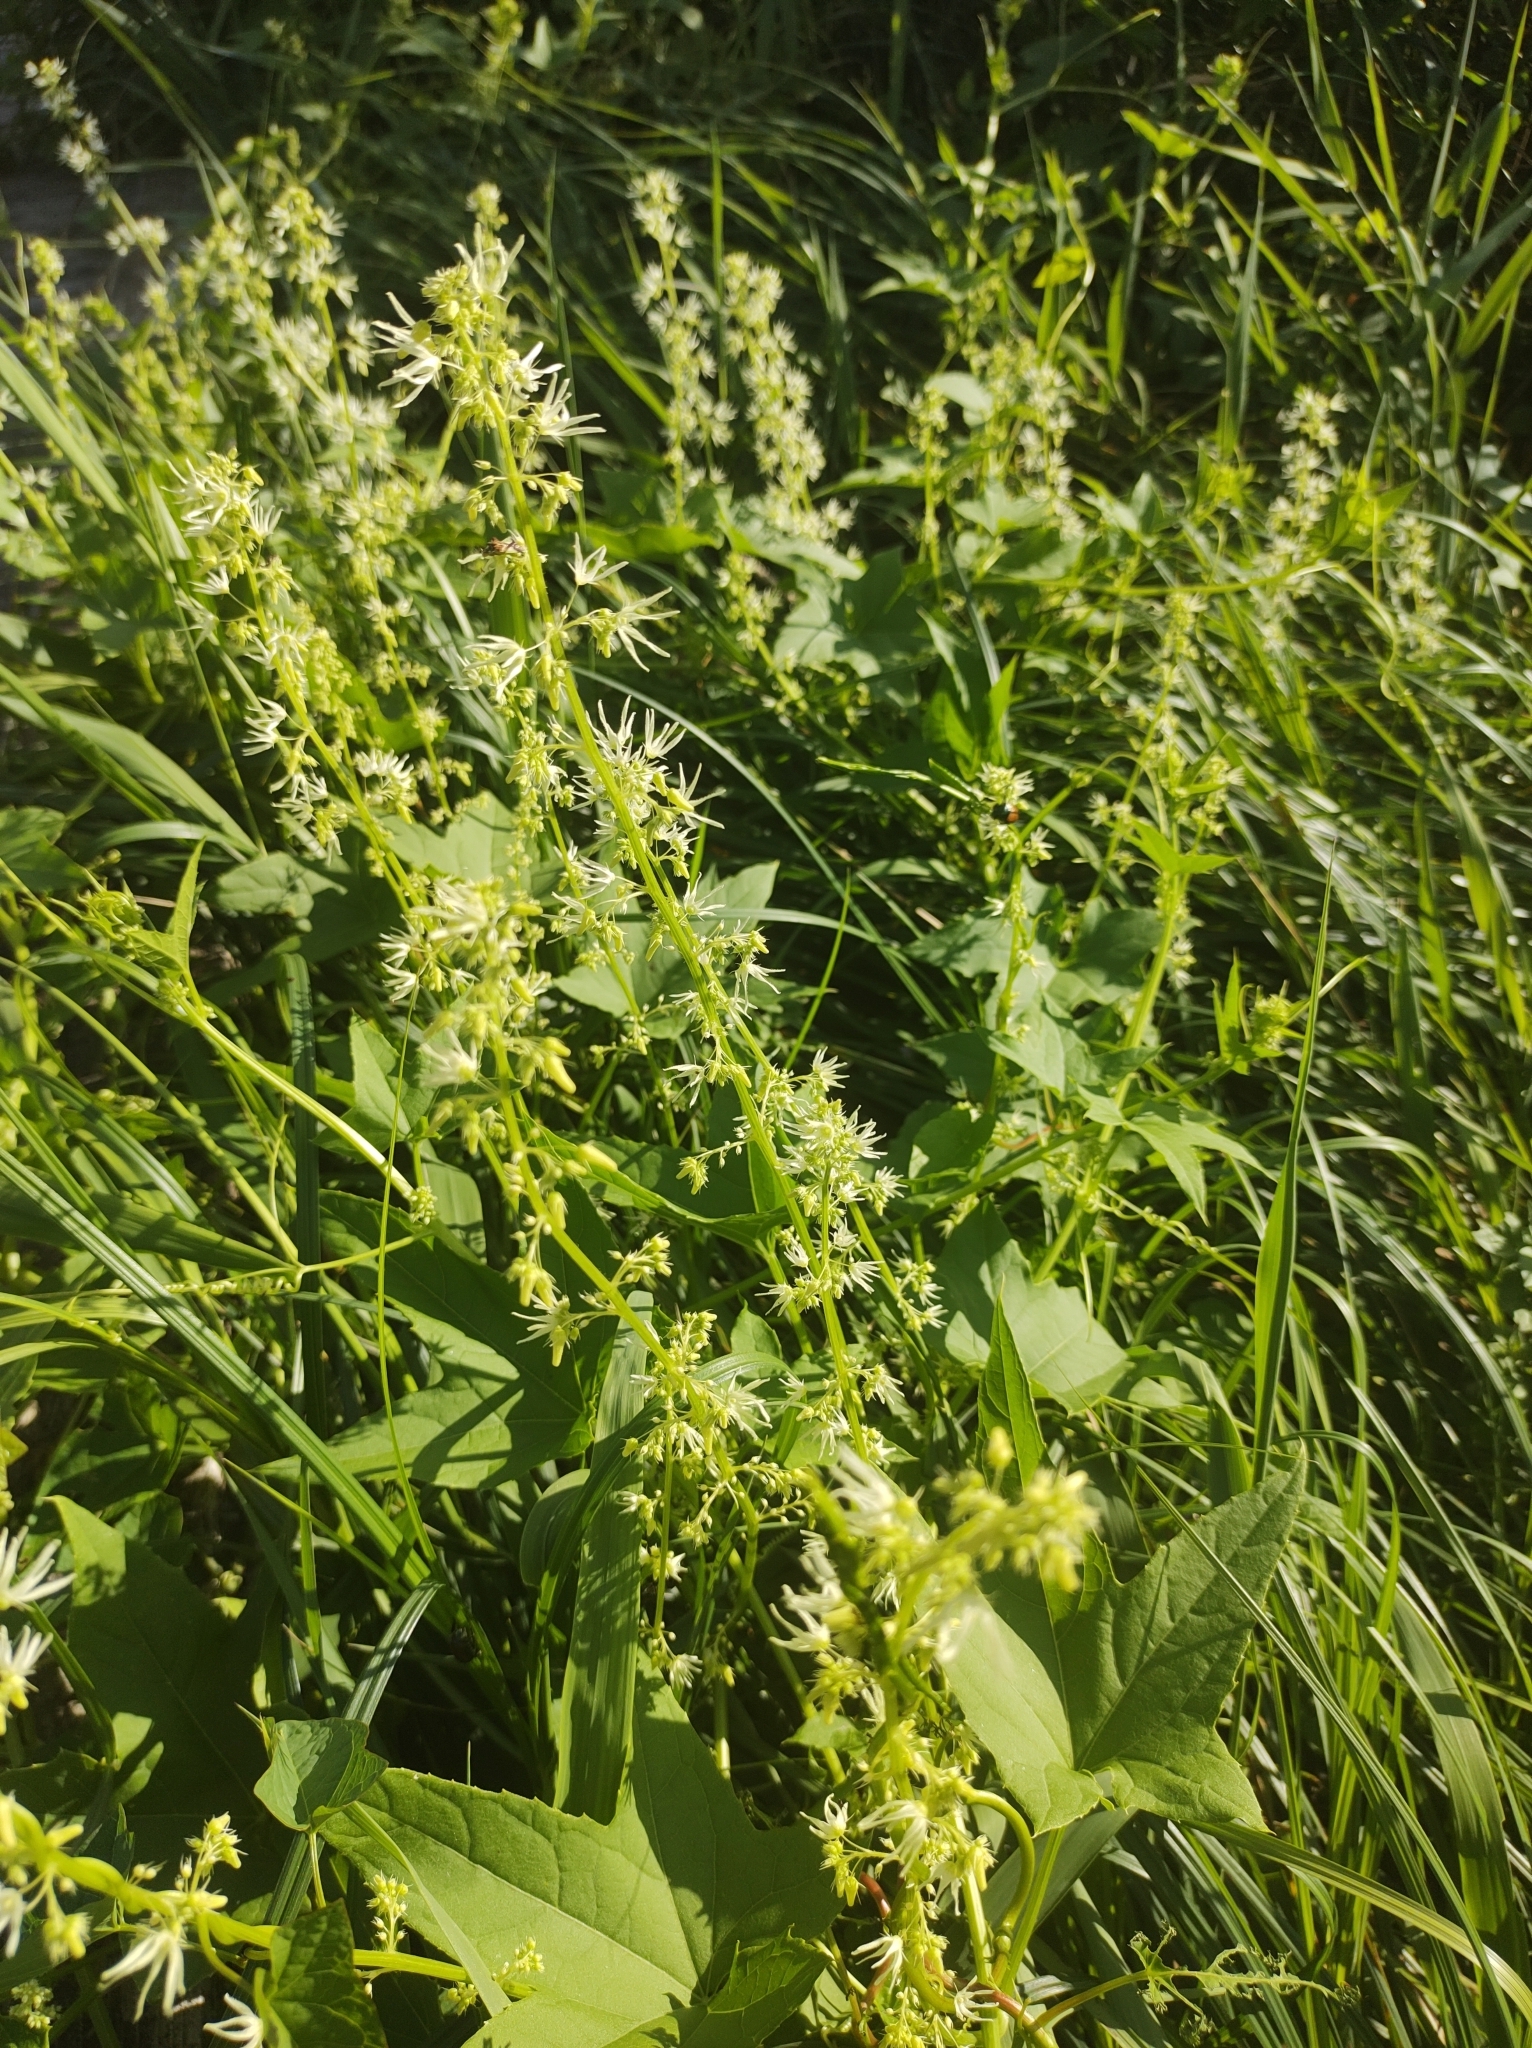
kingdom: Plantae
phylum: Tracheophyta
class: Magnoliopsida
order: Cucurbitales
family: Cucurbitaceae
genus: Echinocystis
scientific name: Echinocystis lobata
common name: Wild cucumber
